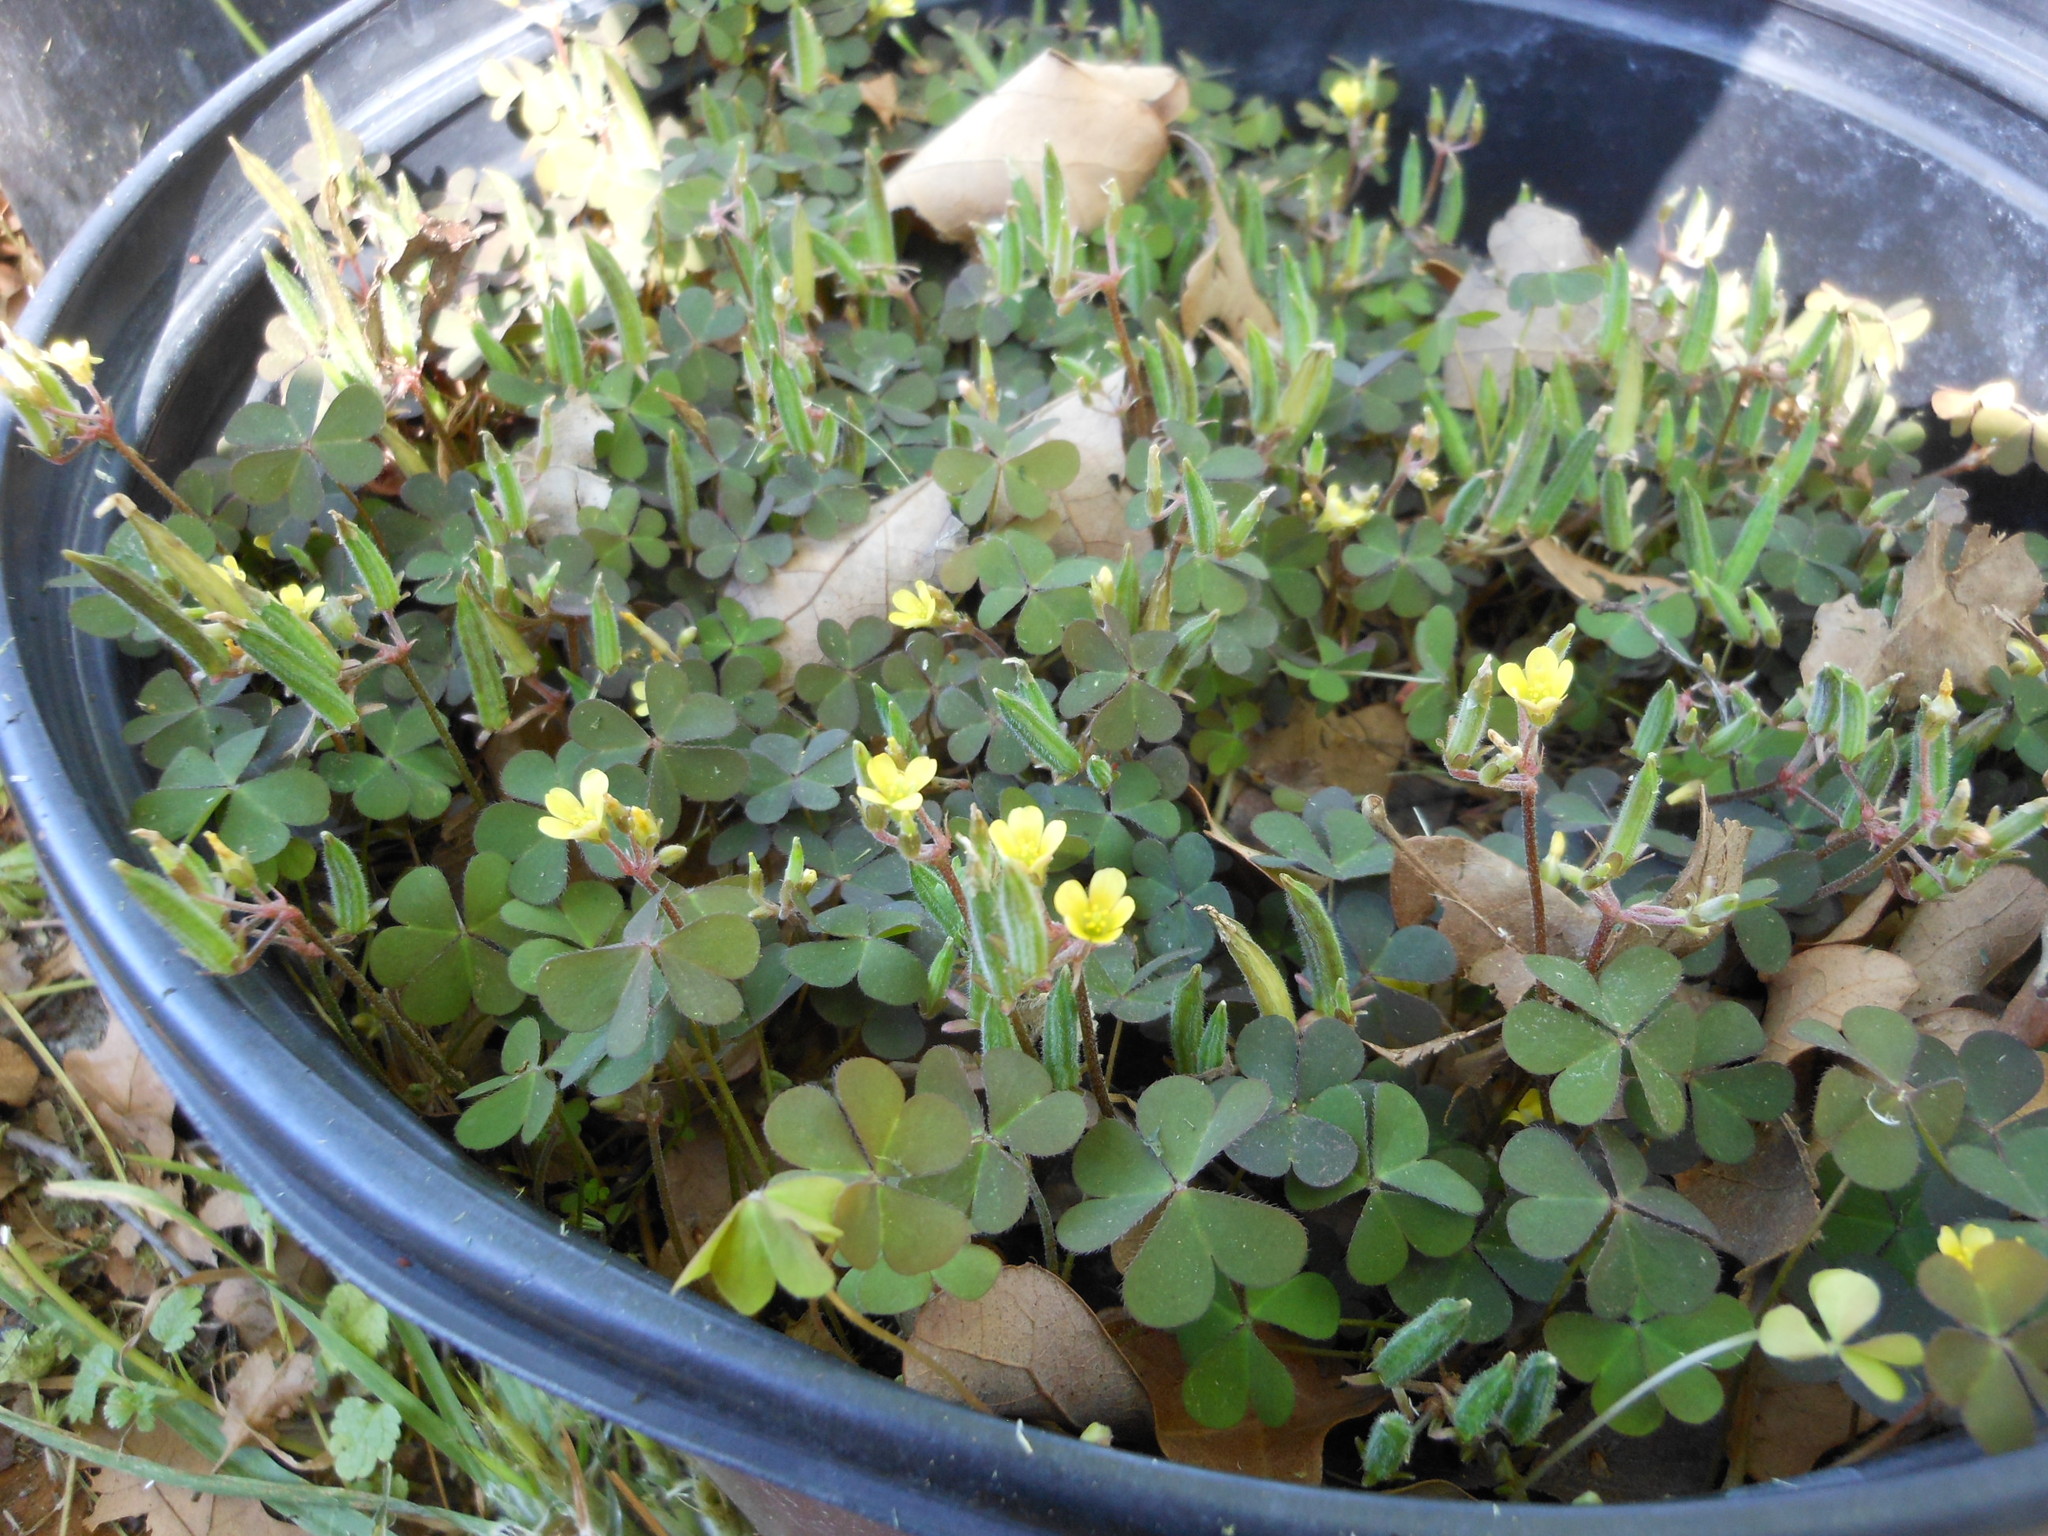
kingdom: Plantae
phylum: Tracheophyta
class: Magnoliopsida
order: Oxalidales
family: Oxalidaceae
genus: Oxalis
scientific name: Oxalis corniculata
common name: Procumbent yellow-sorrel
